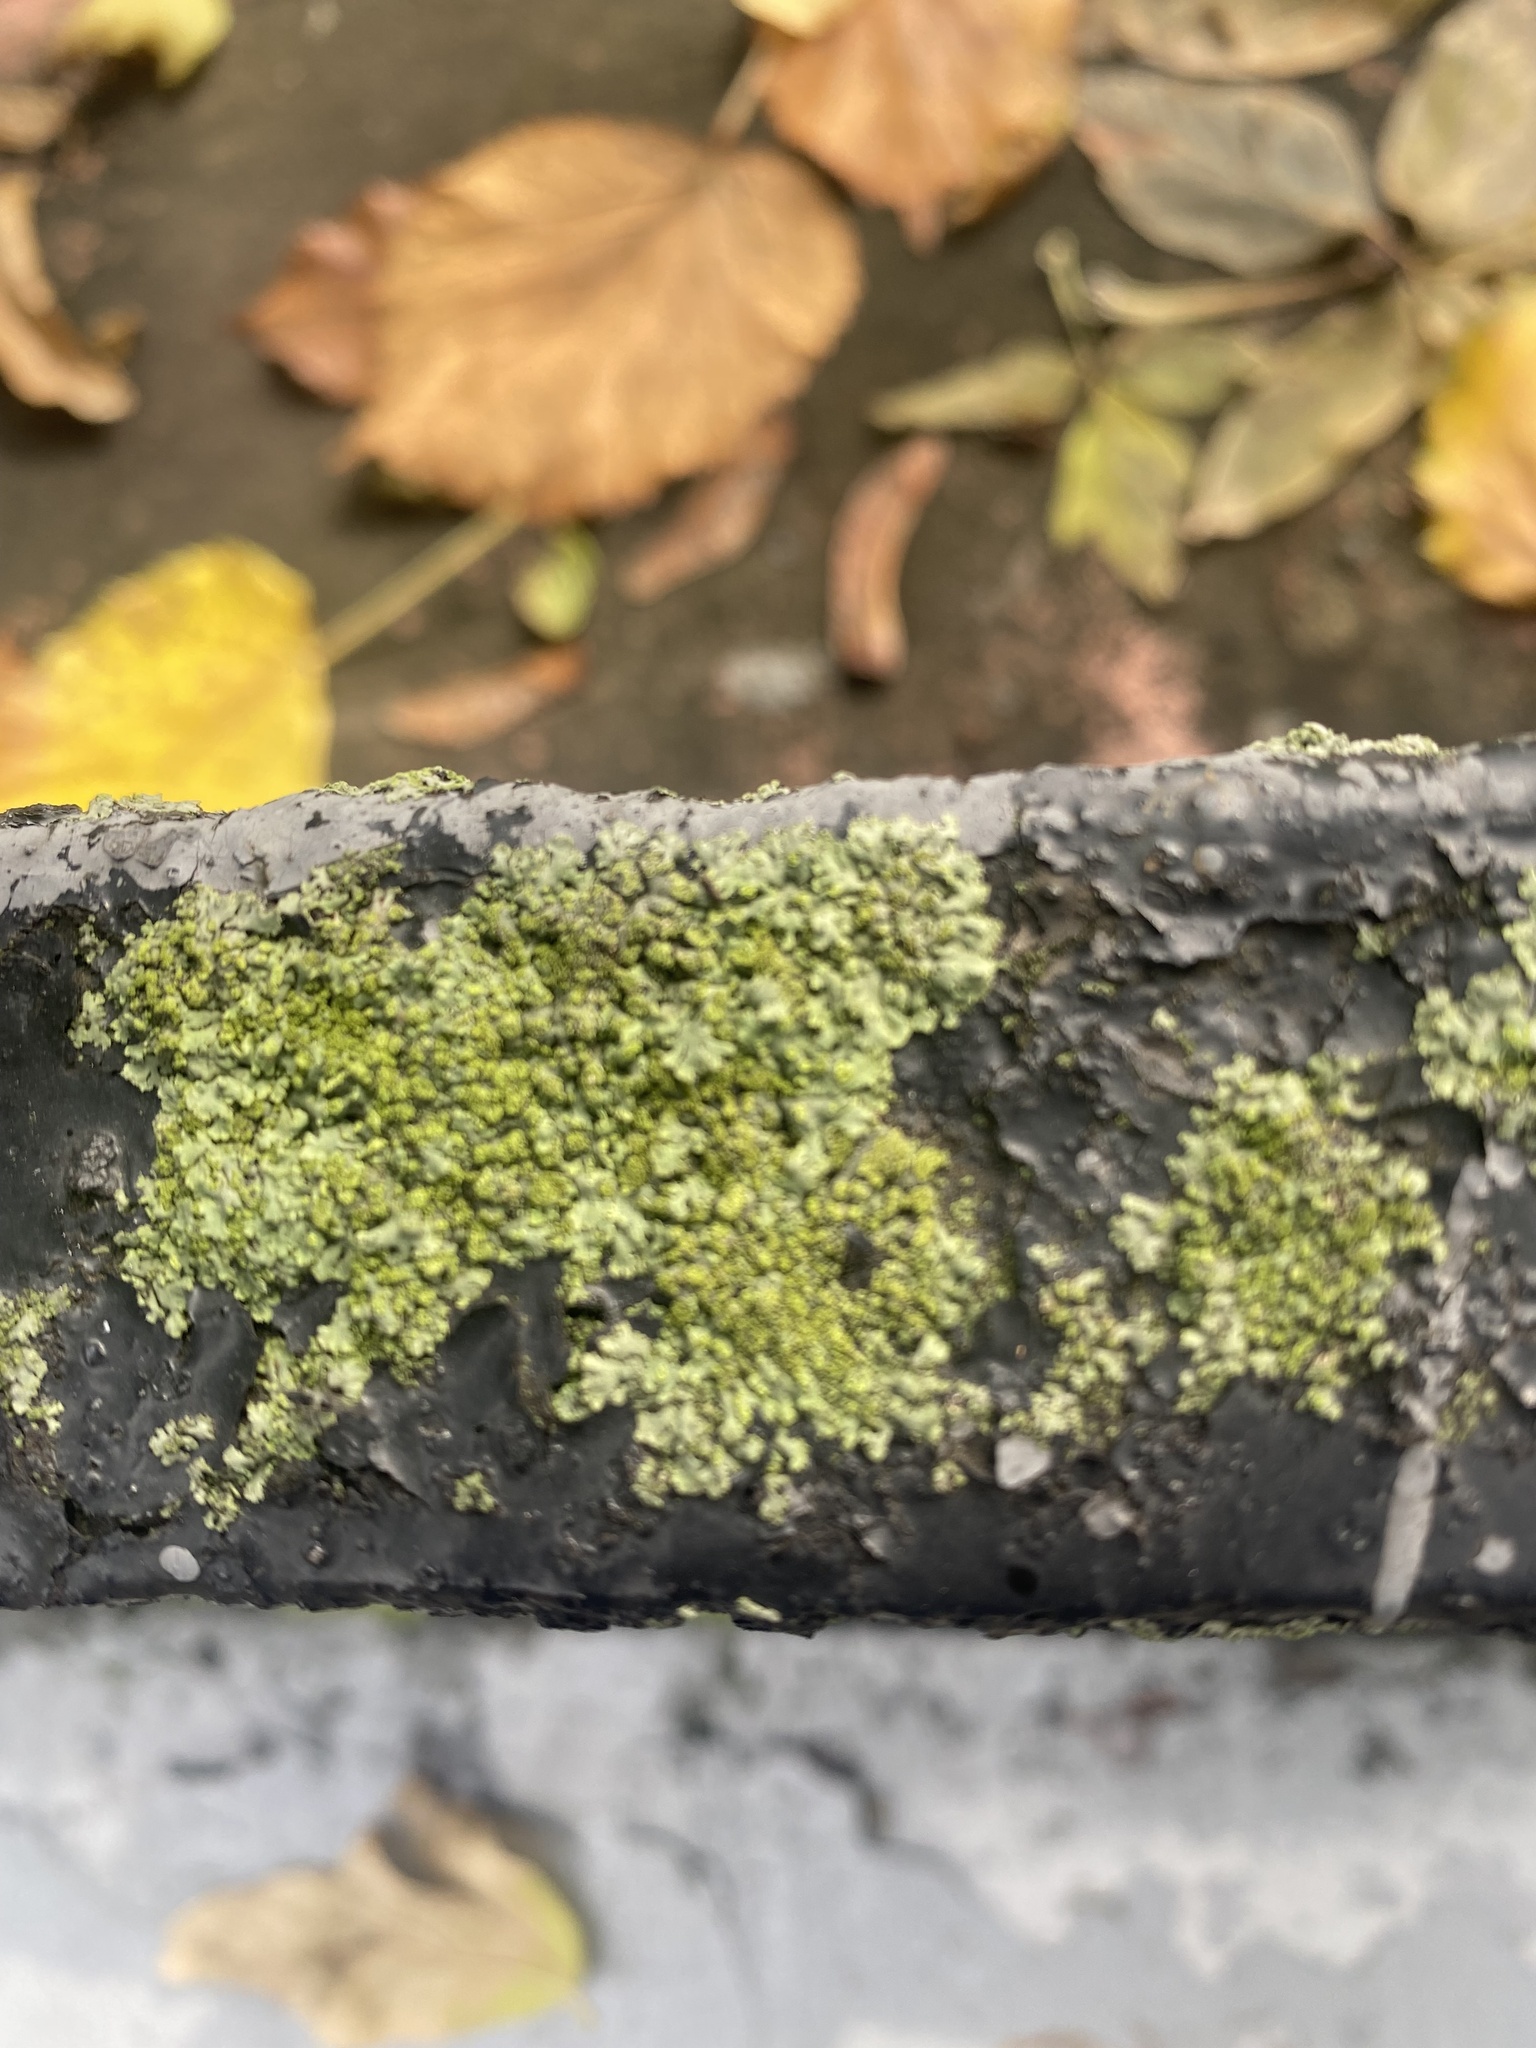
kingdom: Fungi
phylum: Ascomycota
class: Lecanoromycetes
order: Caliciales
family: Physciaceae
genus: Phaeophyscia
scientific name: Phaeophyscia orbicularis
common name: Mealy shadow lichen
